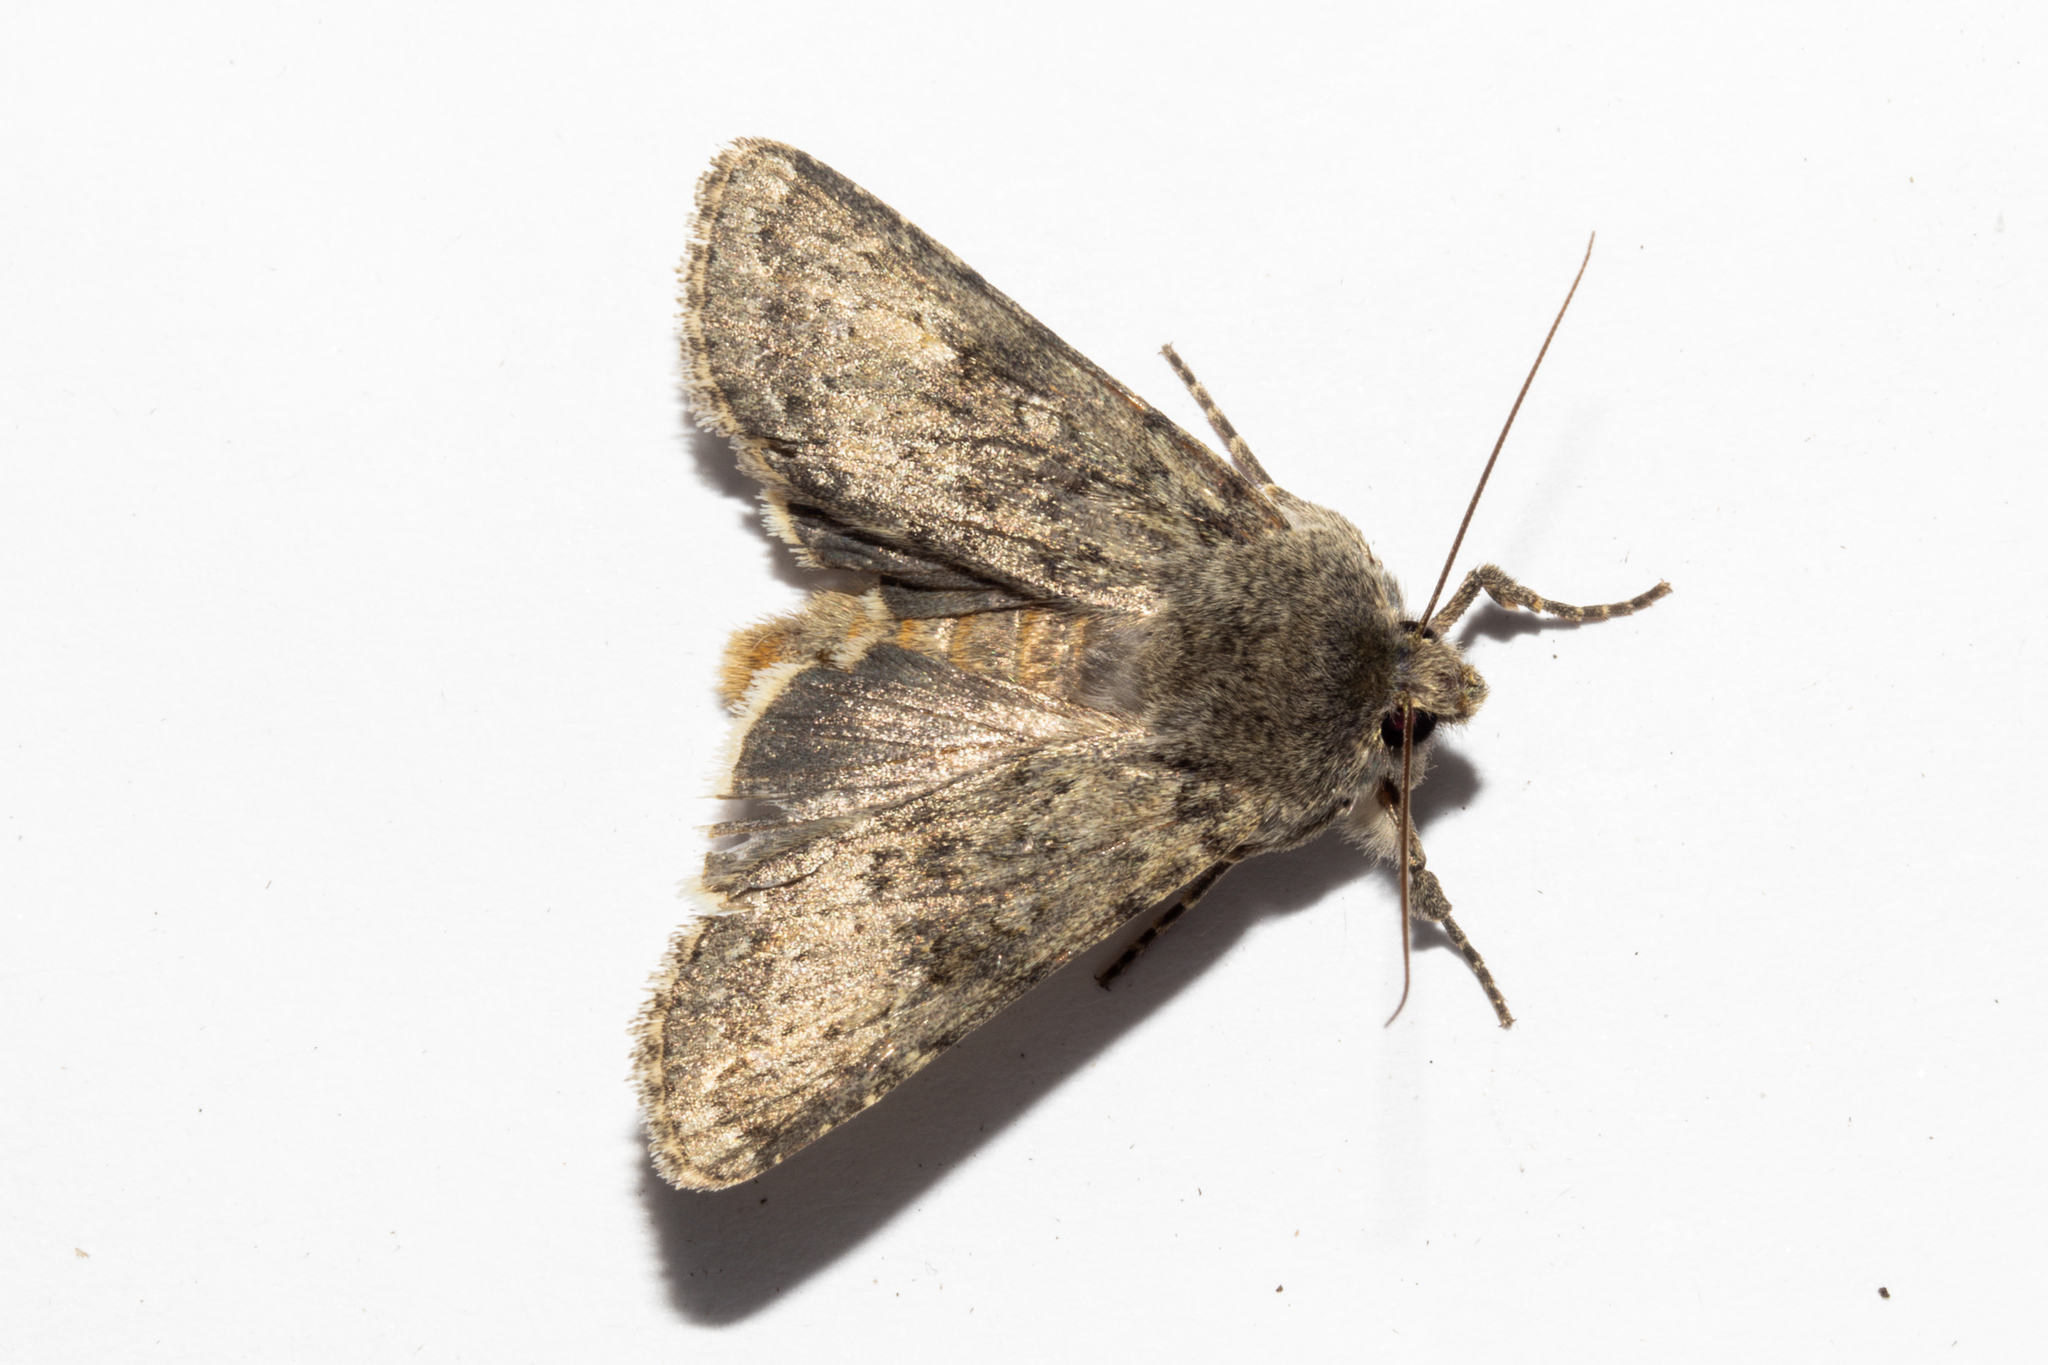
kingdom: Animalia
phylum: Arthropoda
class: Insecta
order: Lepidoptera
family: Noctuidae
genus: Ichneutica
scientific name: Ichneutica moderata
